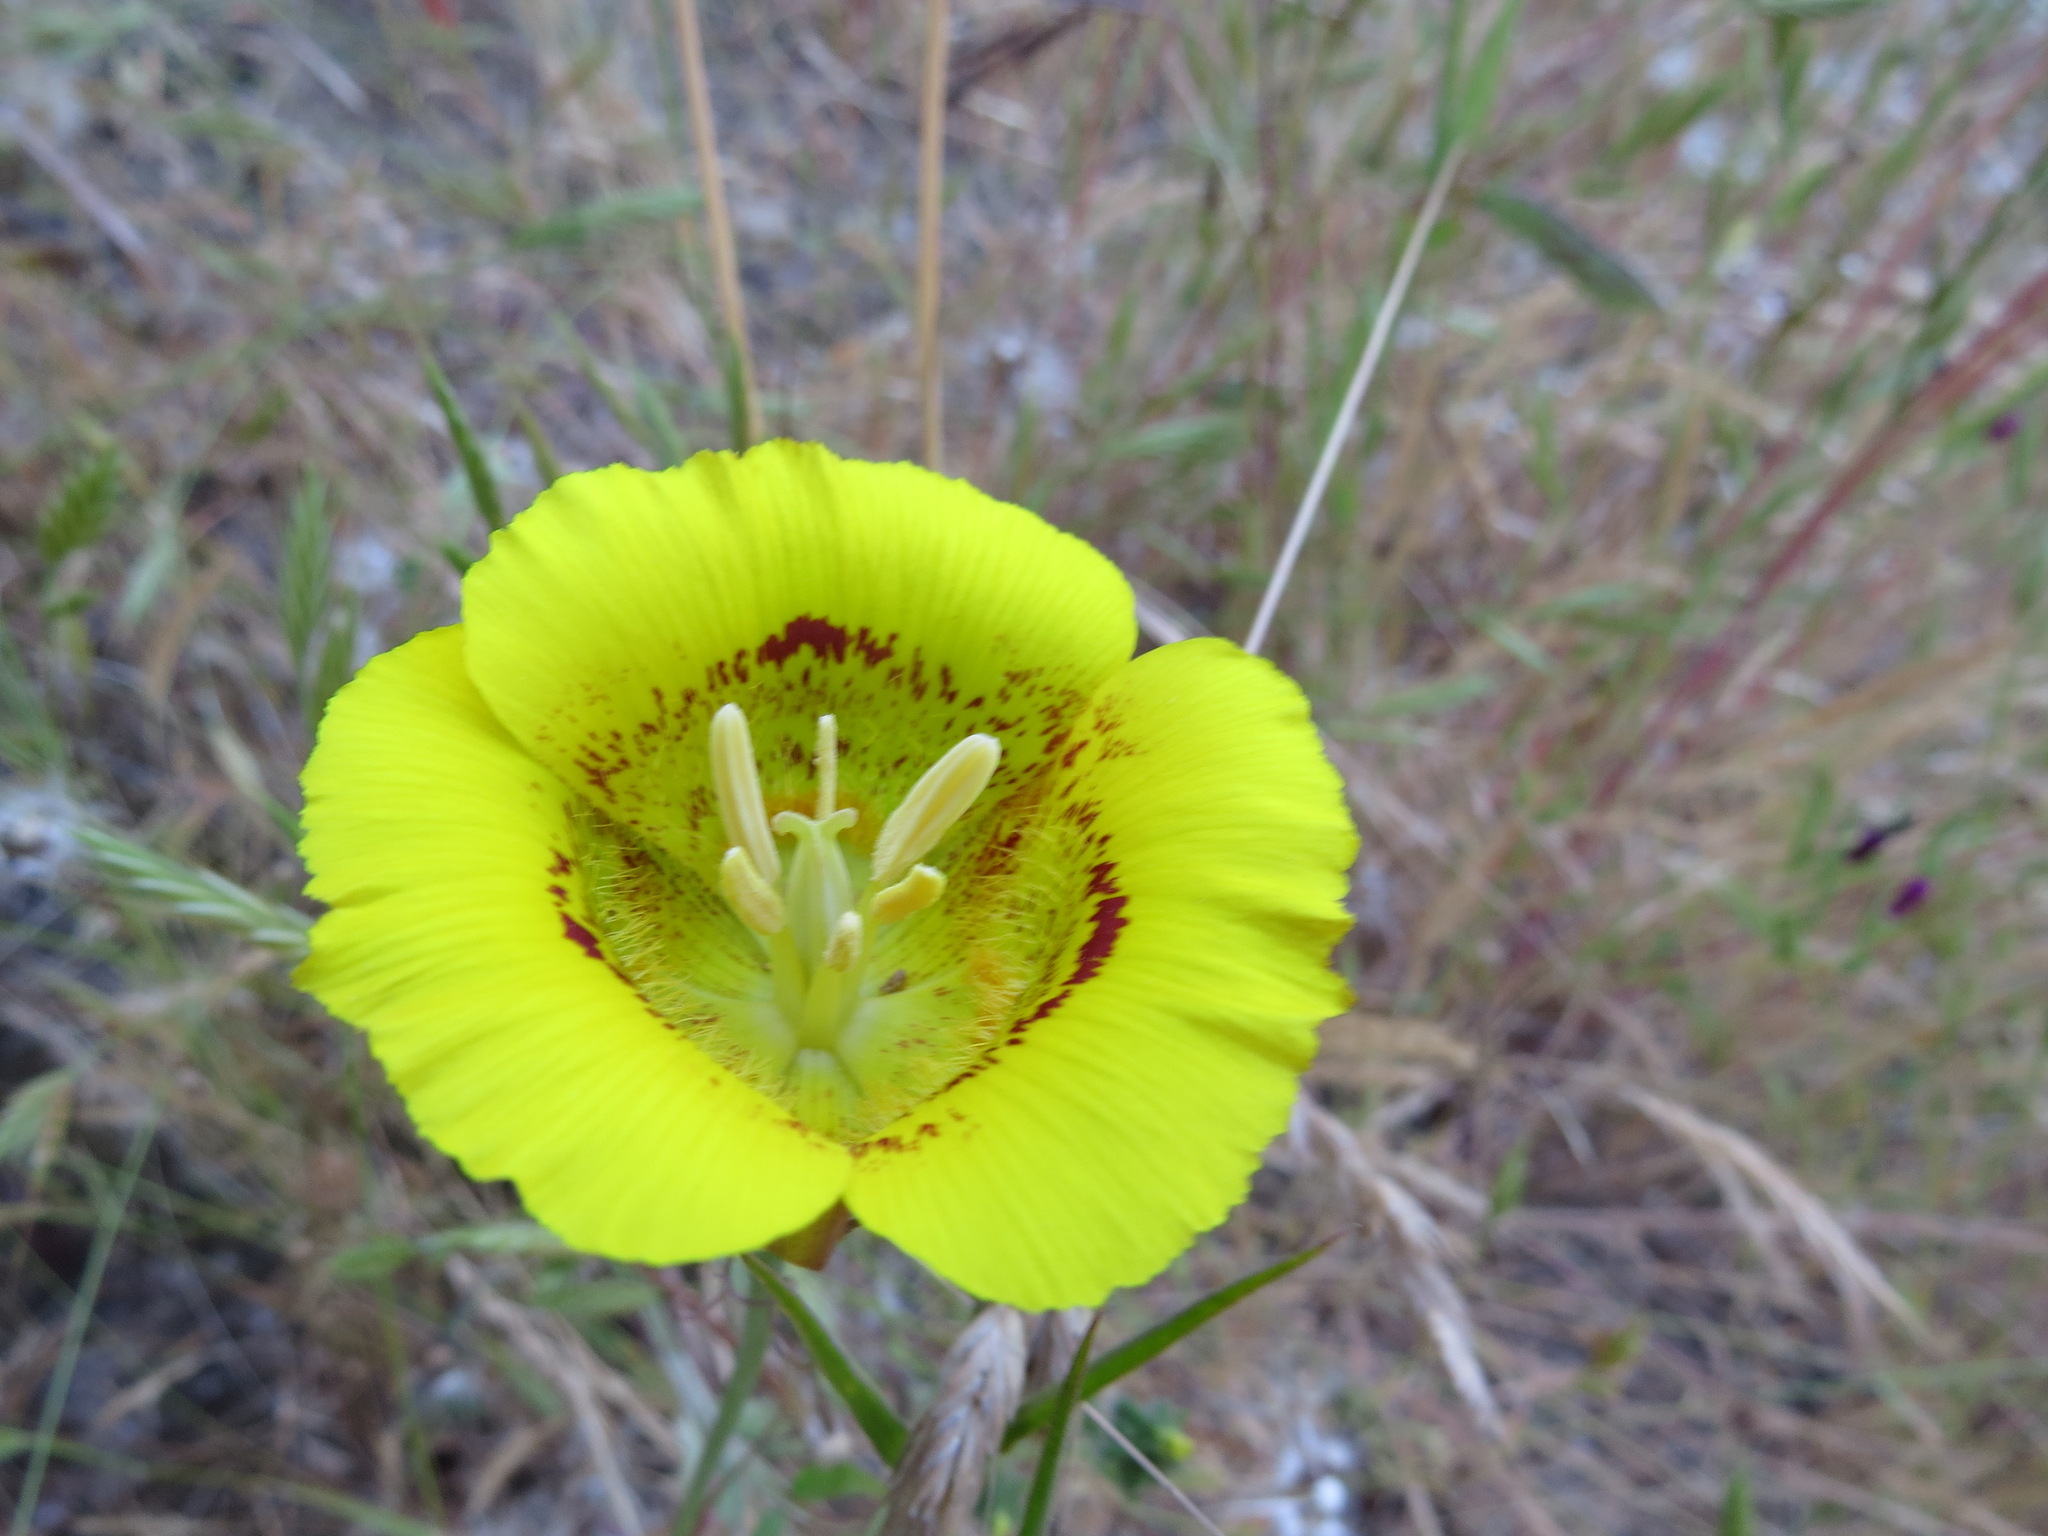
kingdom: Plantae
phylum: Tracheophyta
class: Liliopsida
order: Liliales
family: Liliaceae
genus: Calochortus
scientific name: Calochortus luteus
